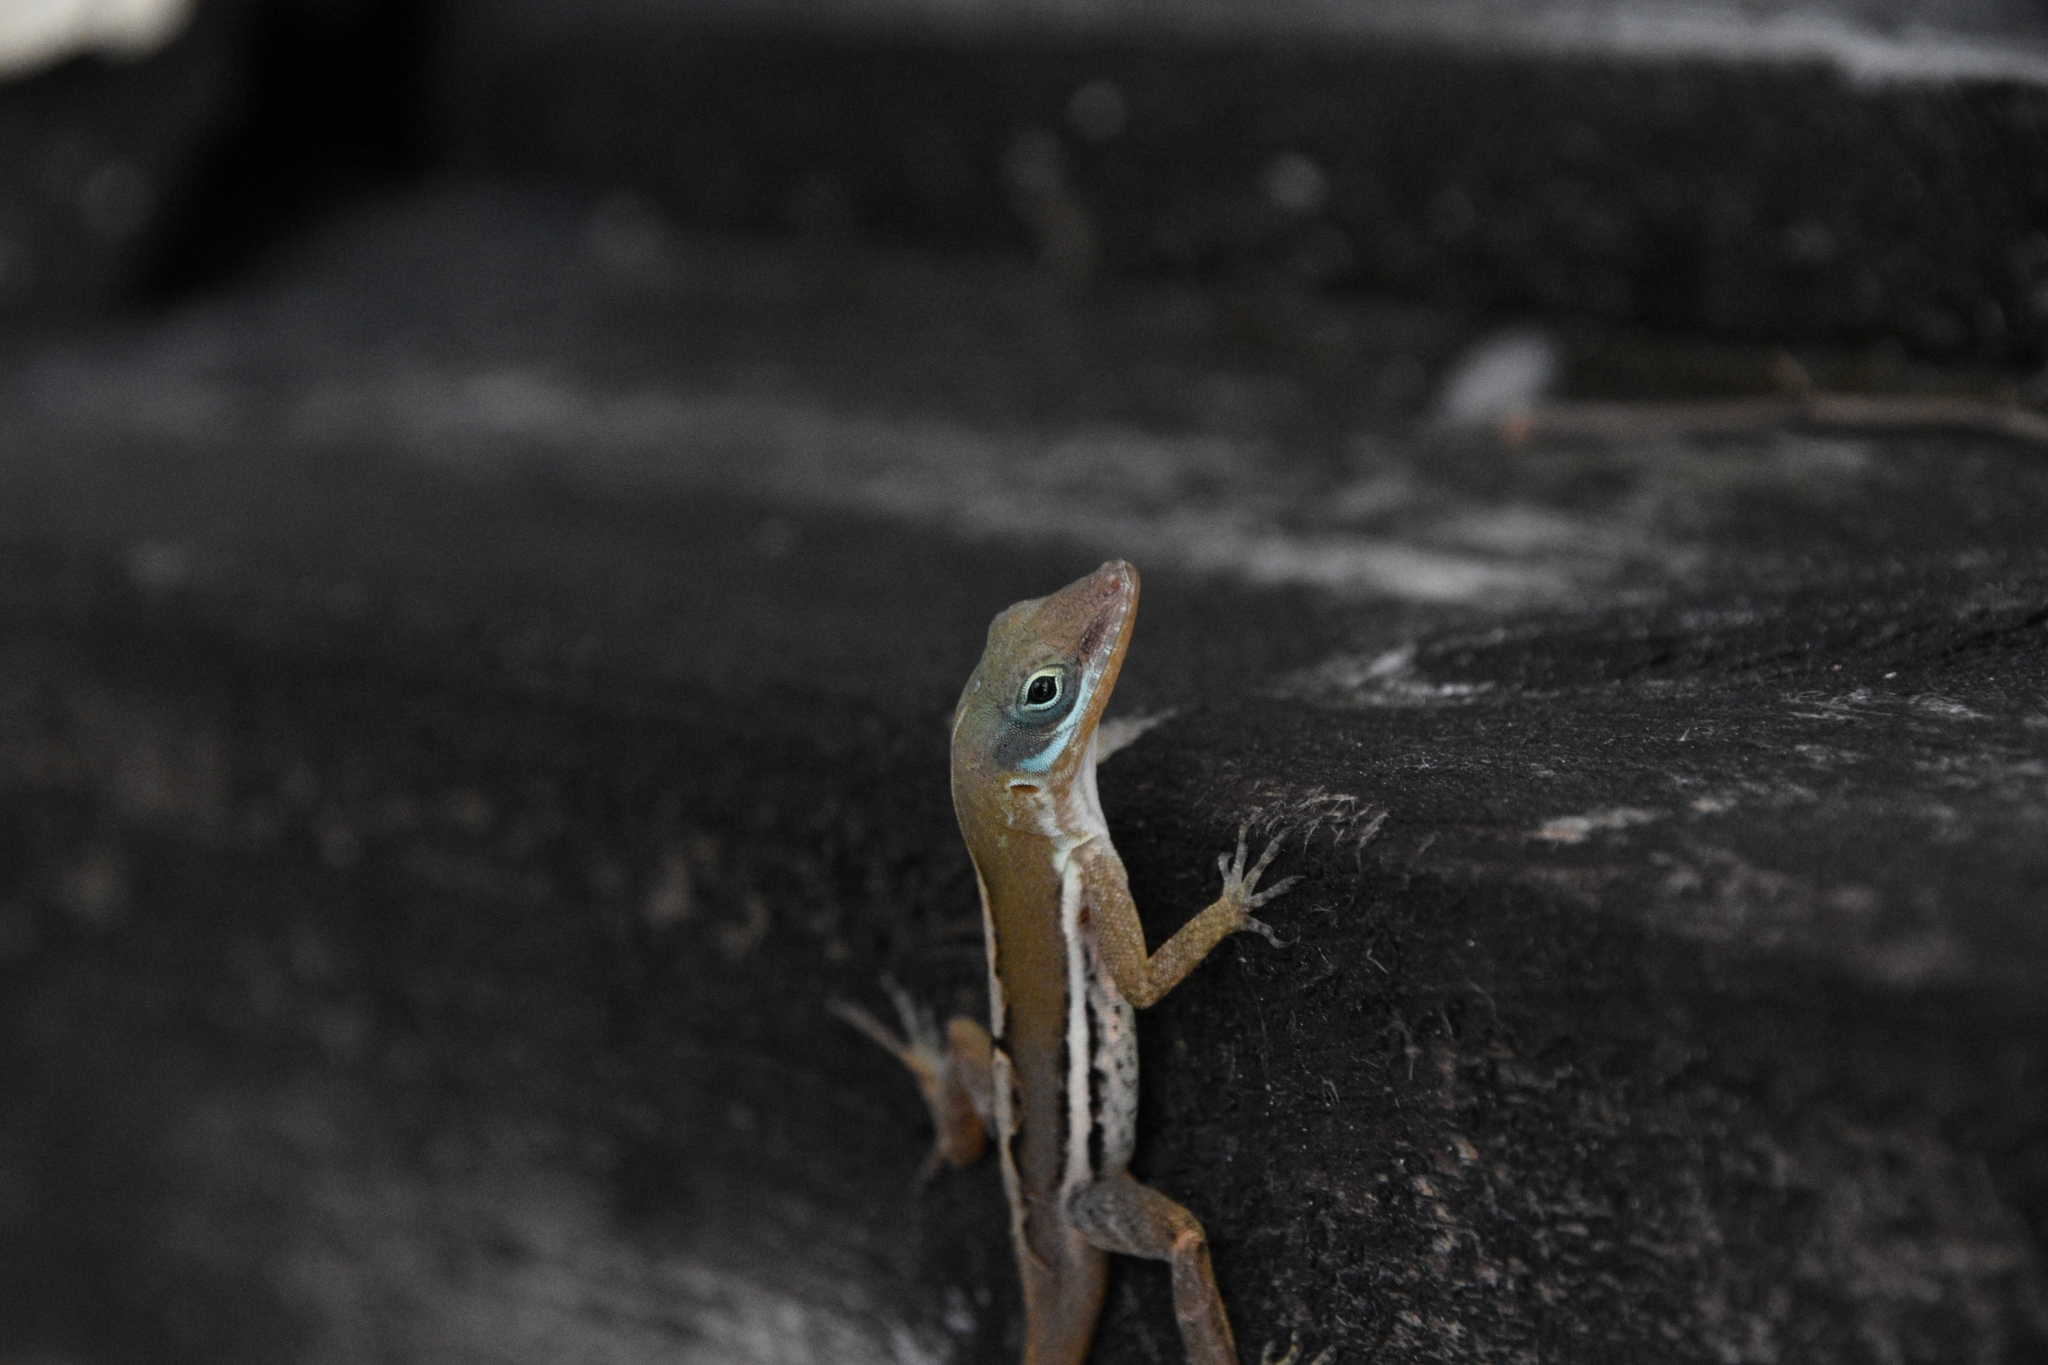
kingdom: Animalia
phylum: Chordata
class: Squamata
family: Dactyloidae
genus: Anolis
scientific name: Anolis wattsii
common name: Antigua bank bush anole
